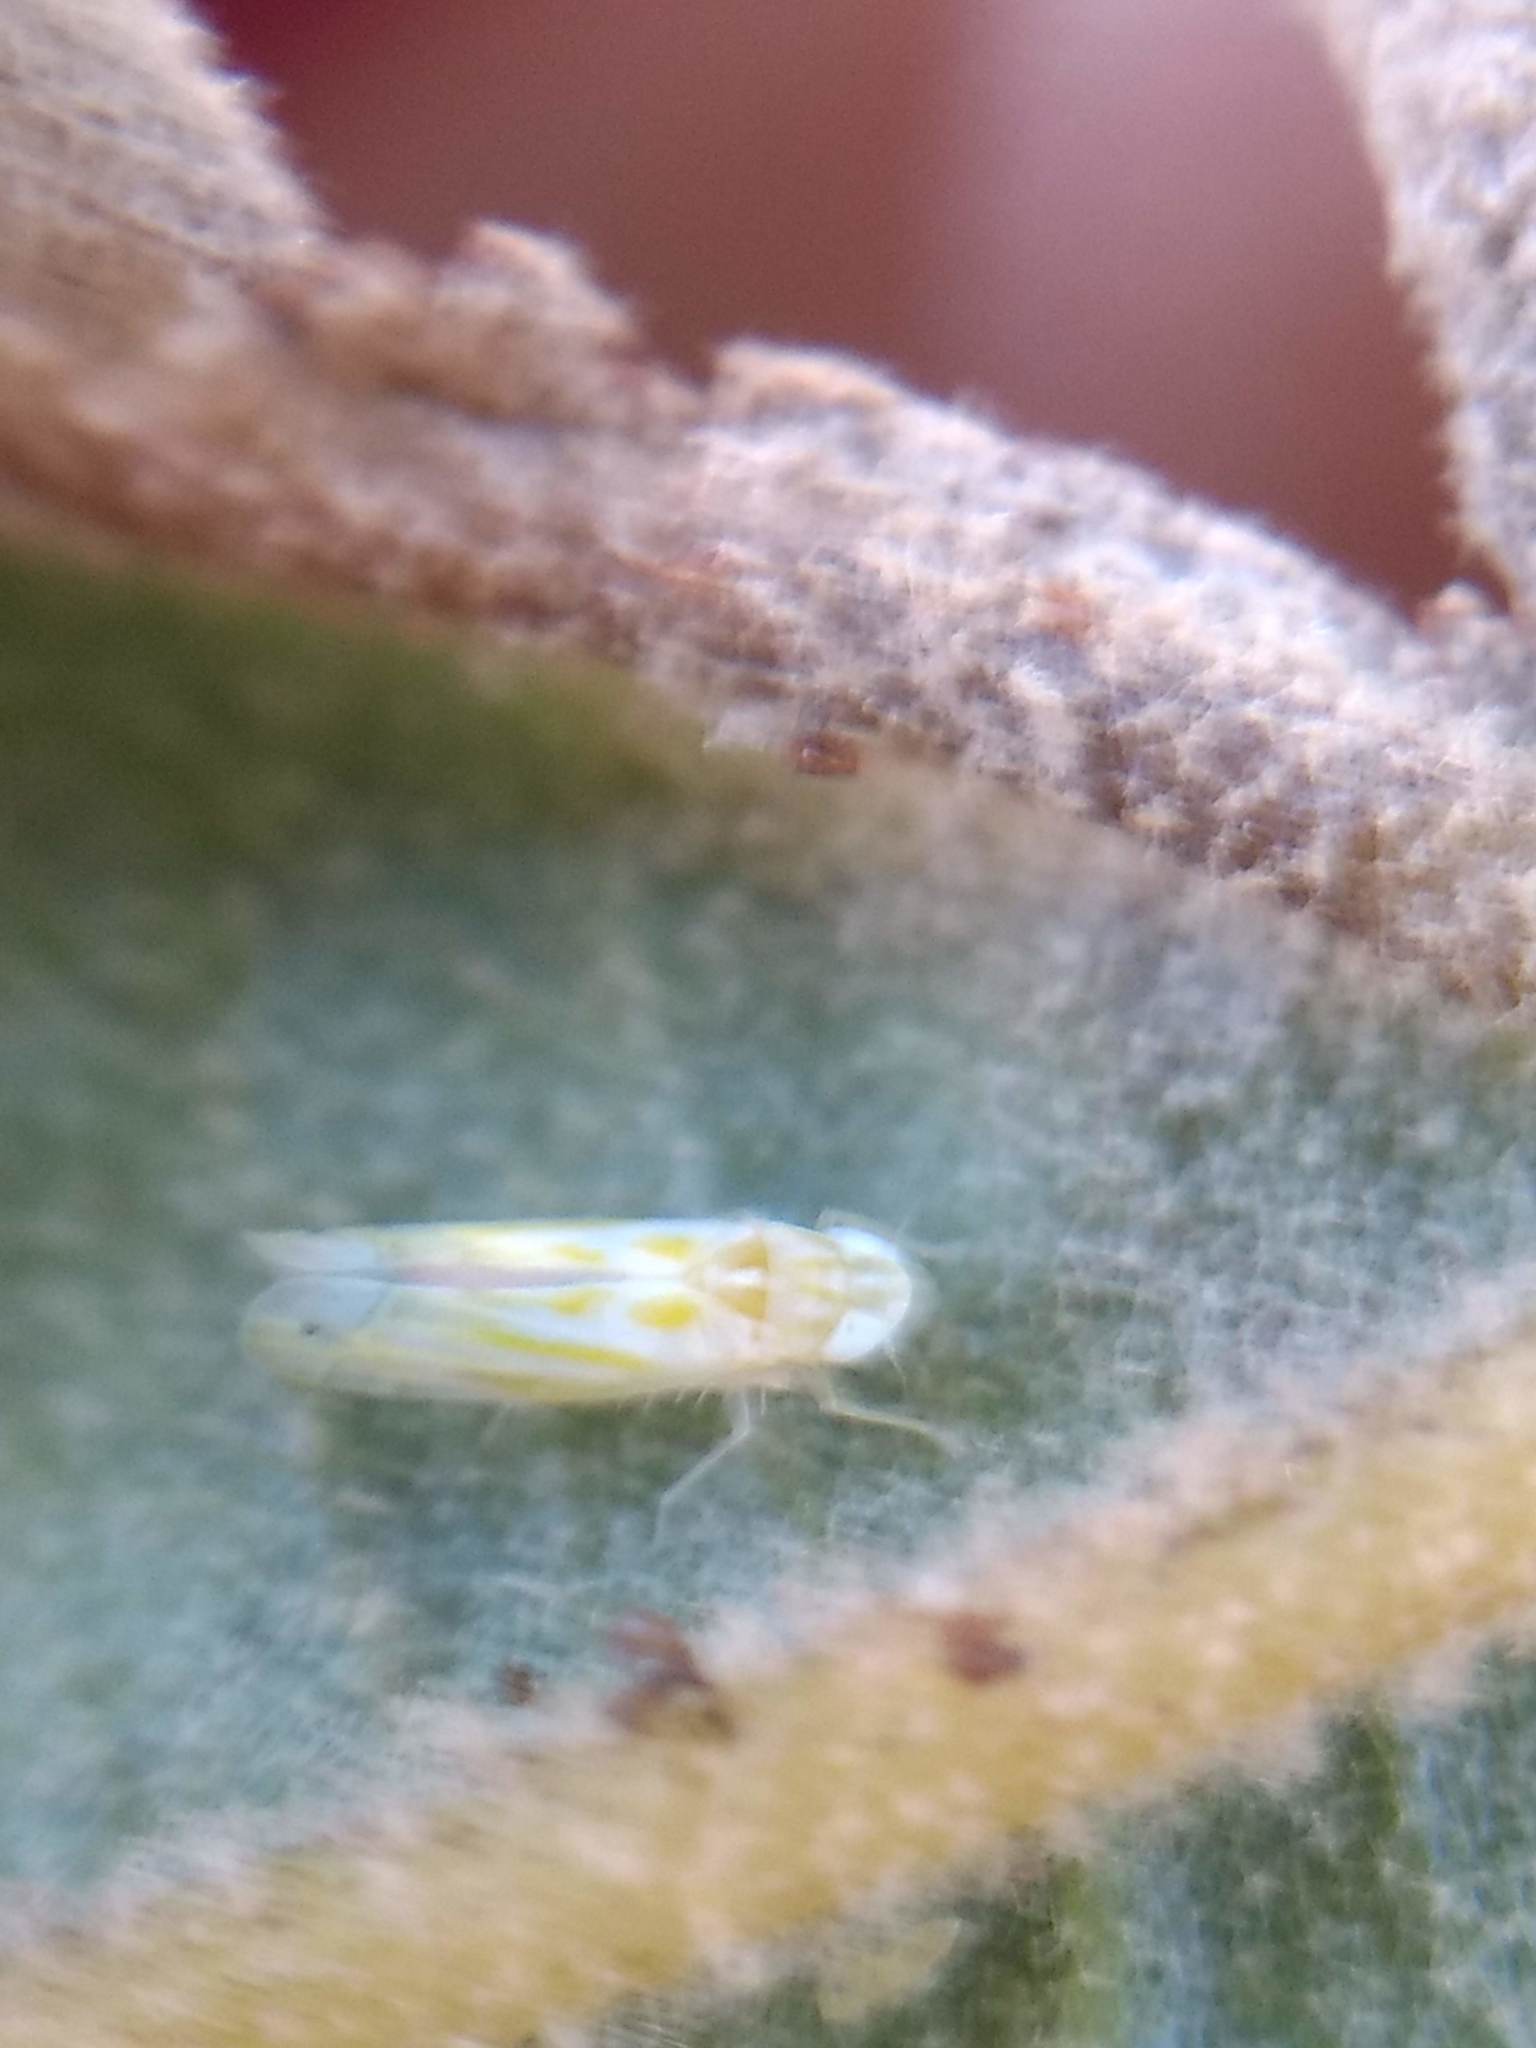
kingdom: Animalia
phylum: Arthropoda
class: Insecta
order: Hemiptera
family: Cicadellidae
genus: Alconeura
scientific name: Alconeura quadrimaculata
